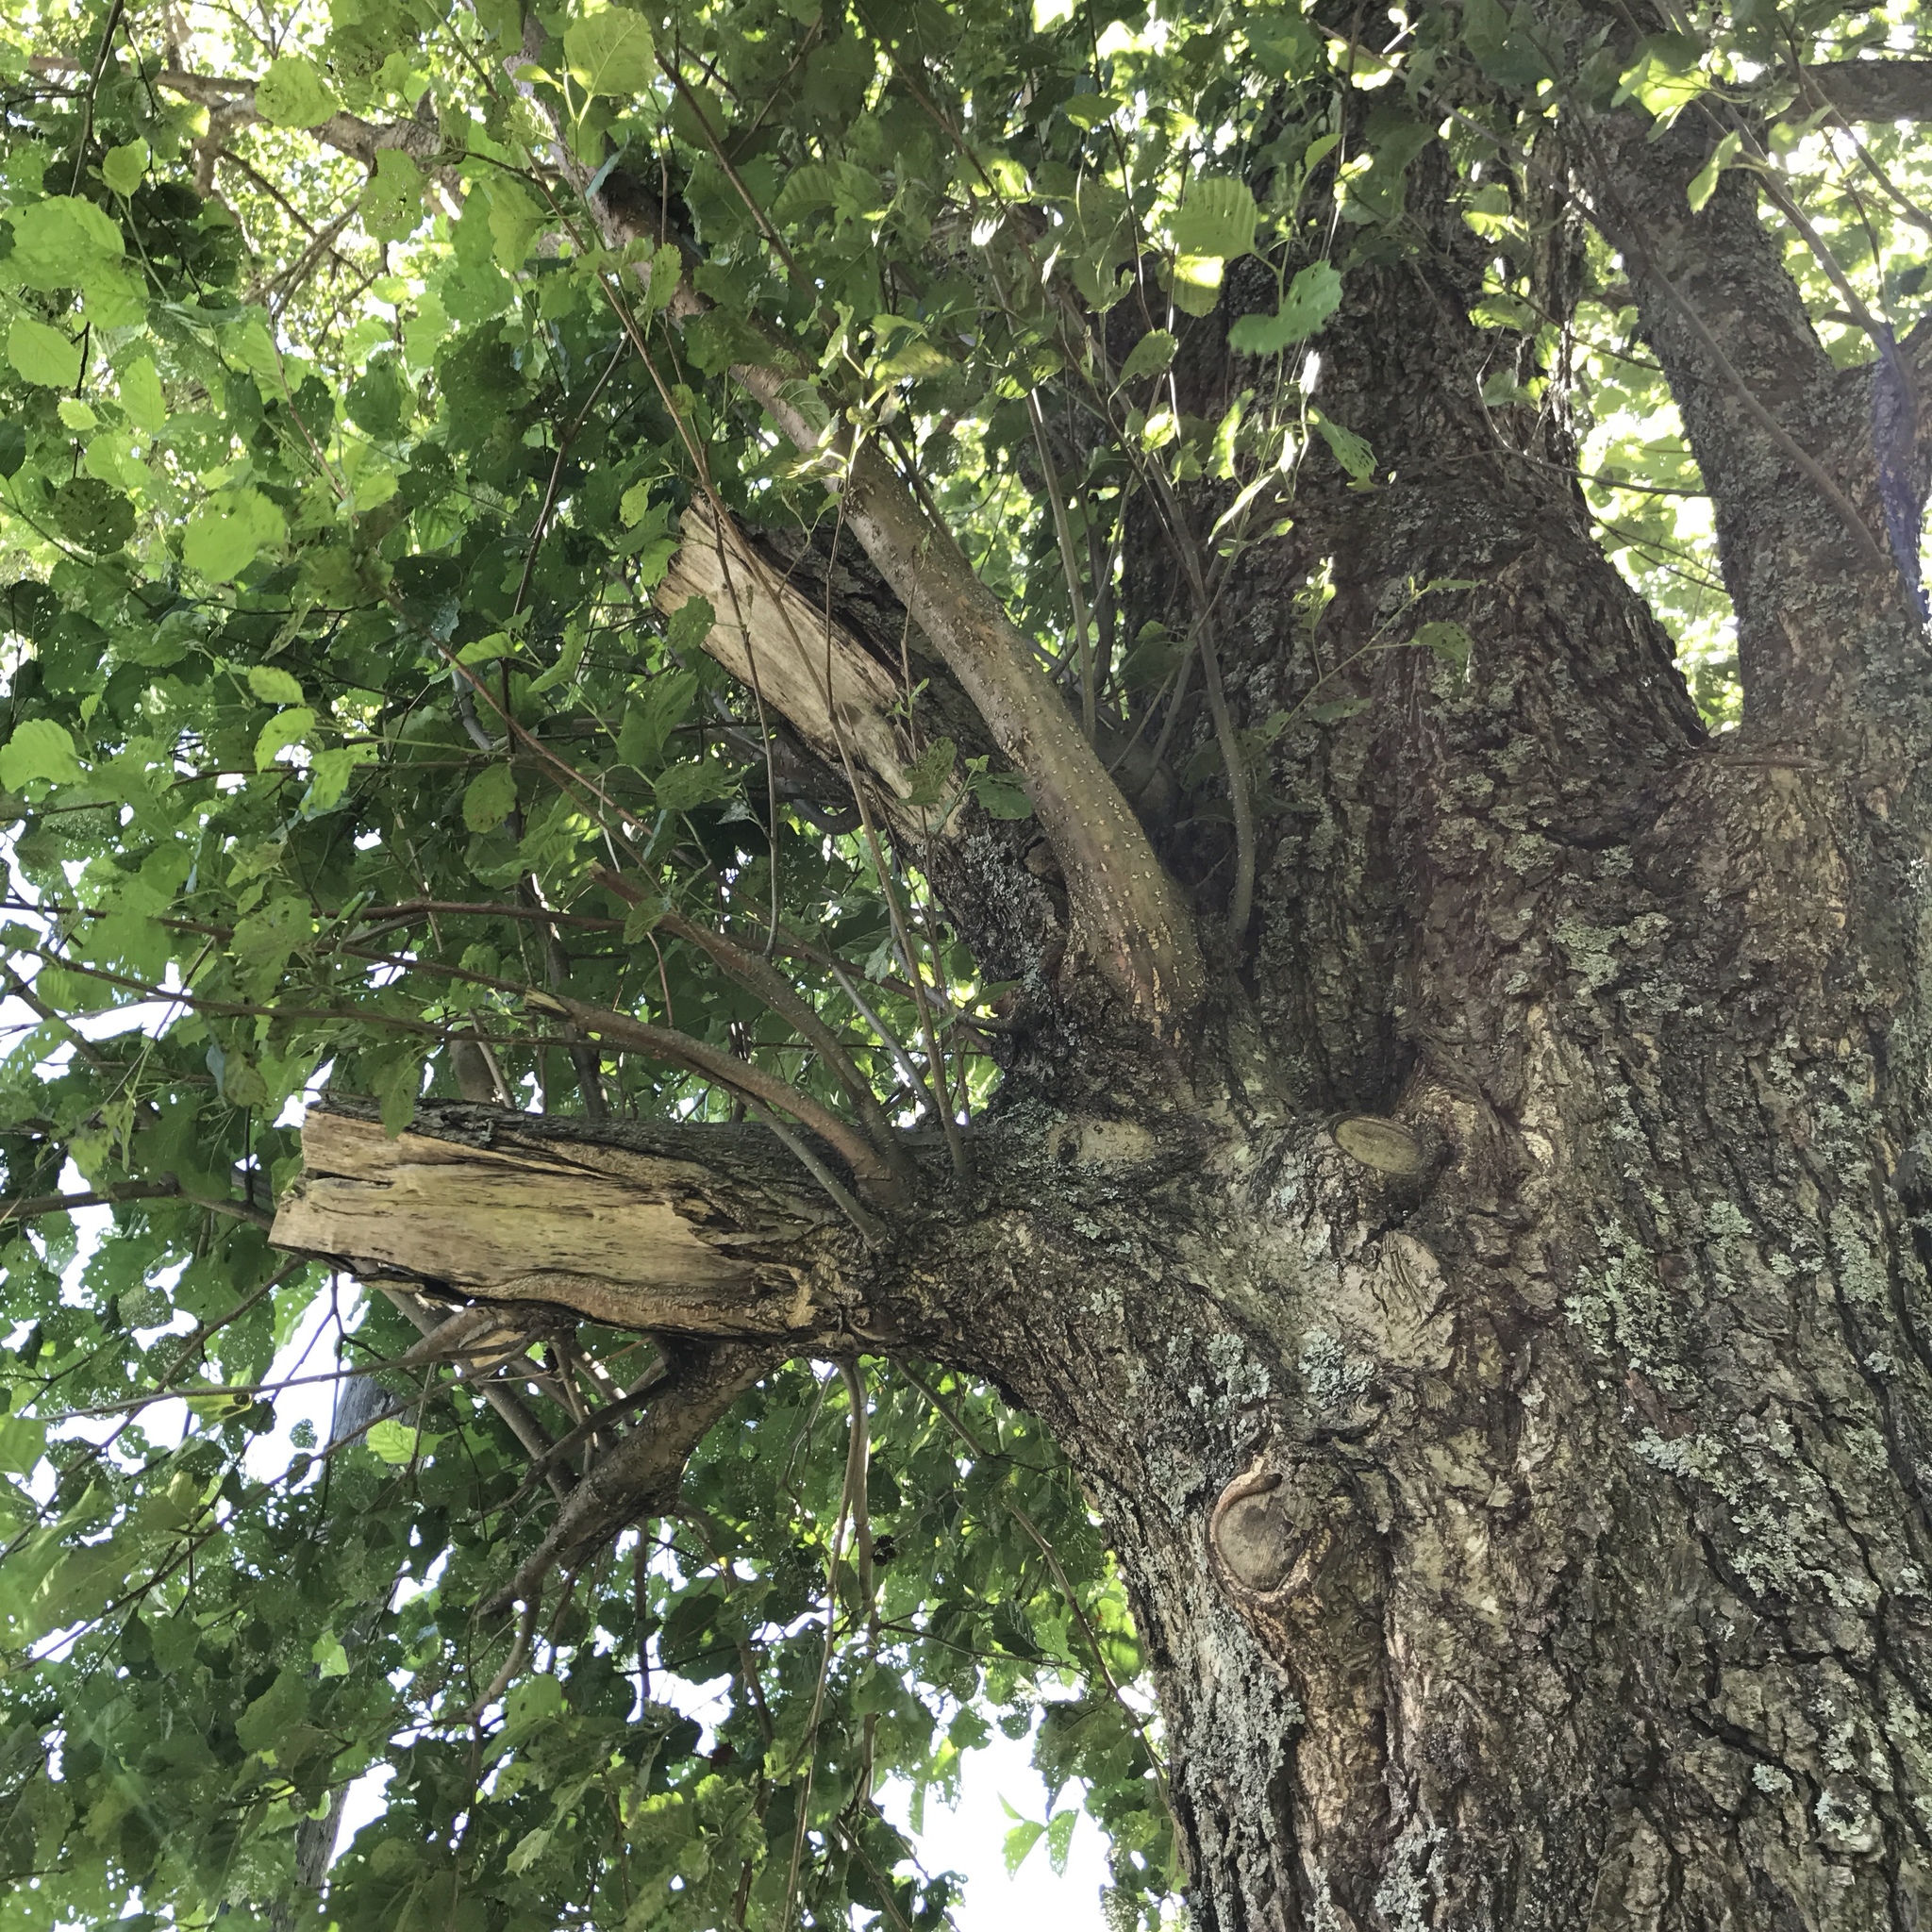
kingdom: Plantae
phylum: Tracheophyta
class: Magnoliopsida
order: Fagales
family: Betulaceae
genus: Alnus
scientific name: Alnus glutinosa
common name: Black alder
